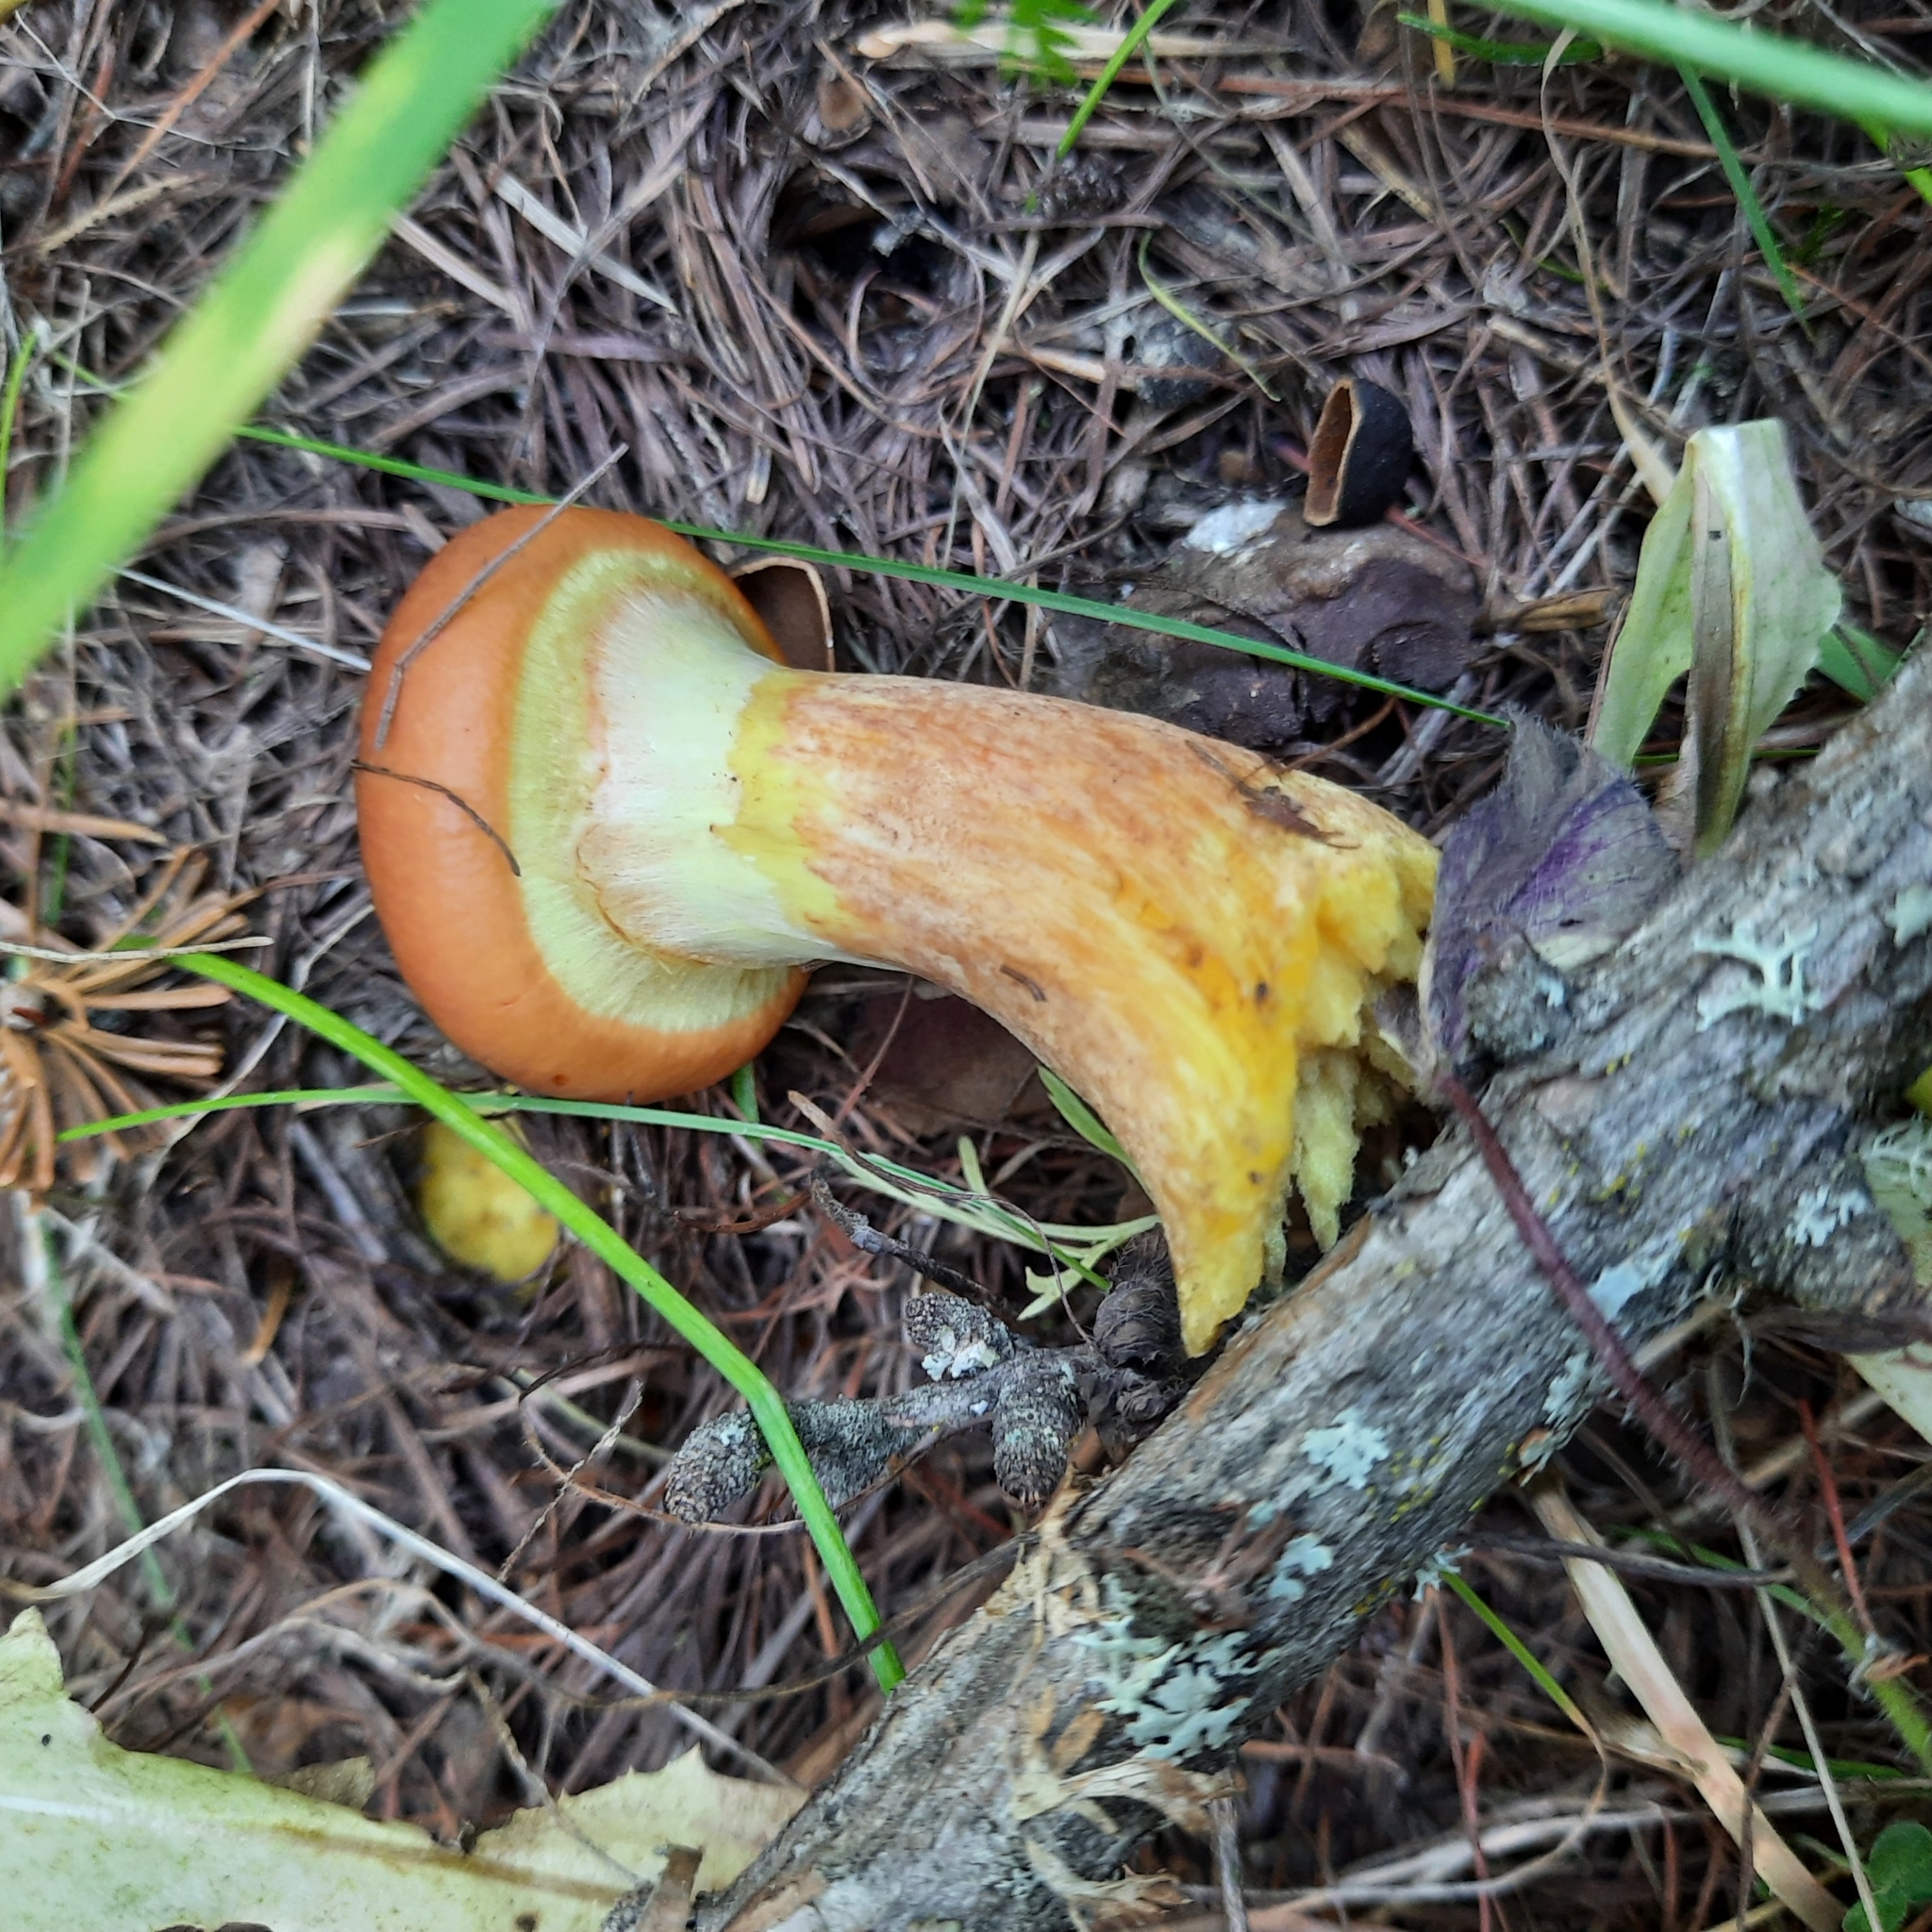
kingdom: Fungi
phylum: Basidiomycota
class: Agaricomycetes
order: Boletales
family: Suillaceae
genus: Suillus
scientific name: Suillus grevillei
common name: Larch bolete
